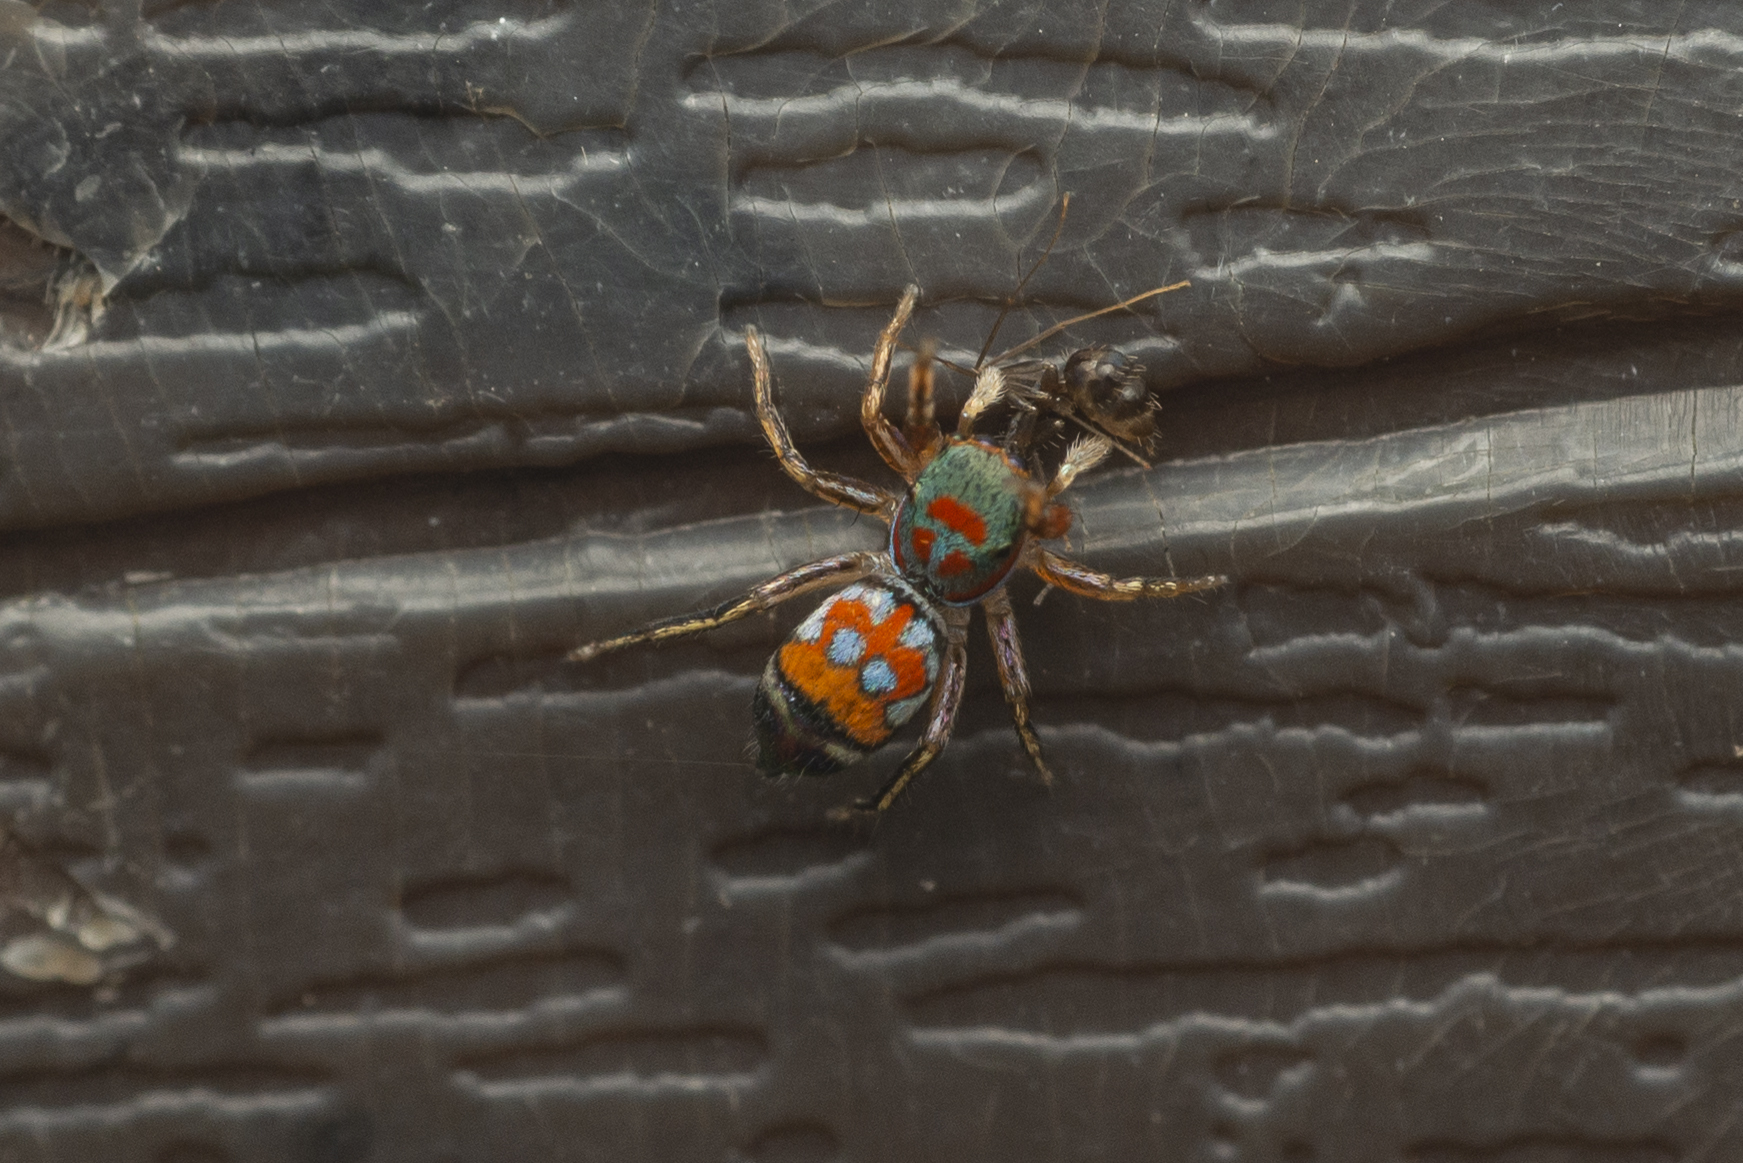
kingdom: Animalia
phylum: Arthropoda
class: Arachnida
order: Araneae
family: Salticidae
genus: Siler
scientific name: Siler collingwoodi
